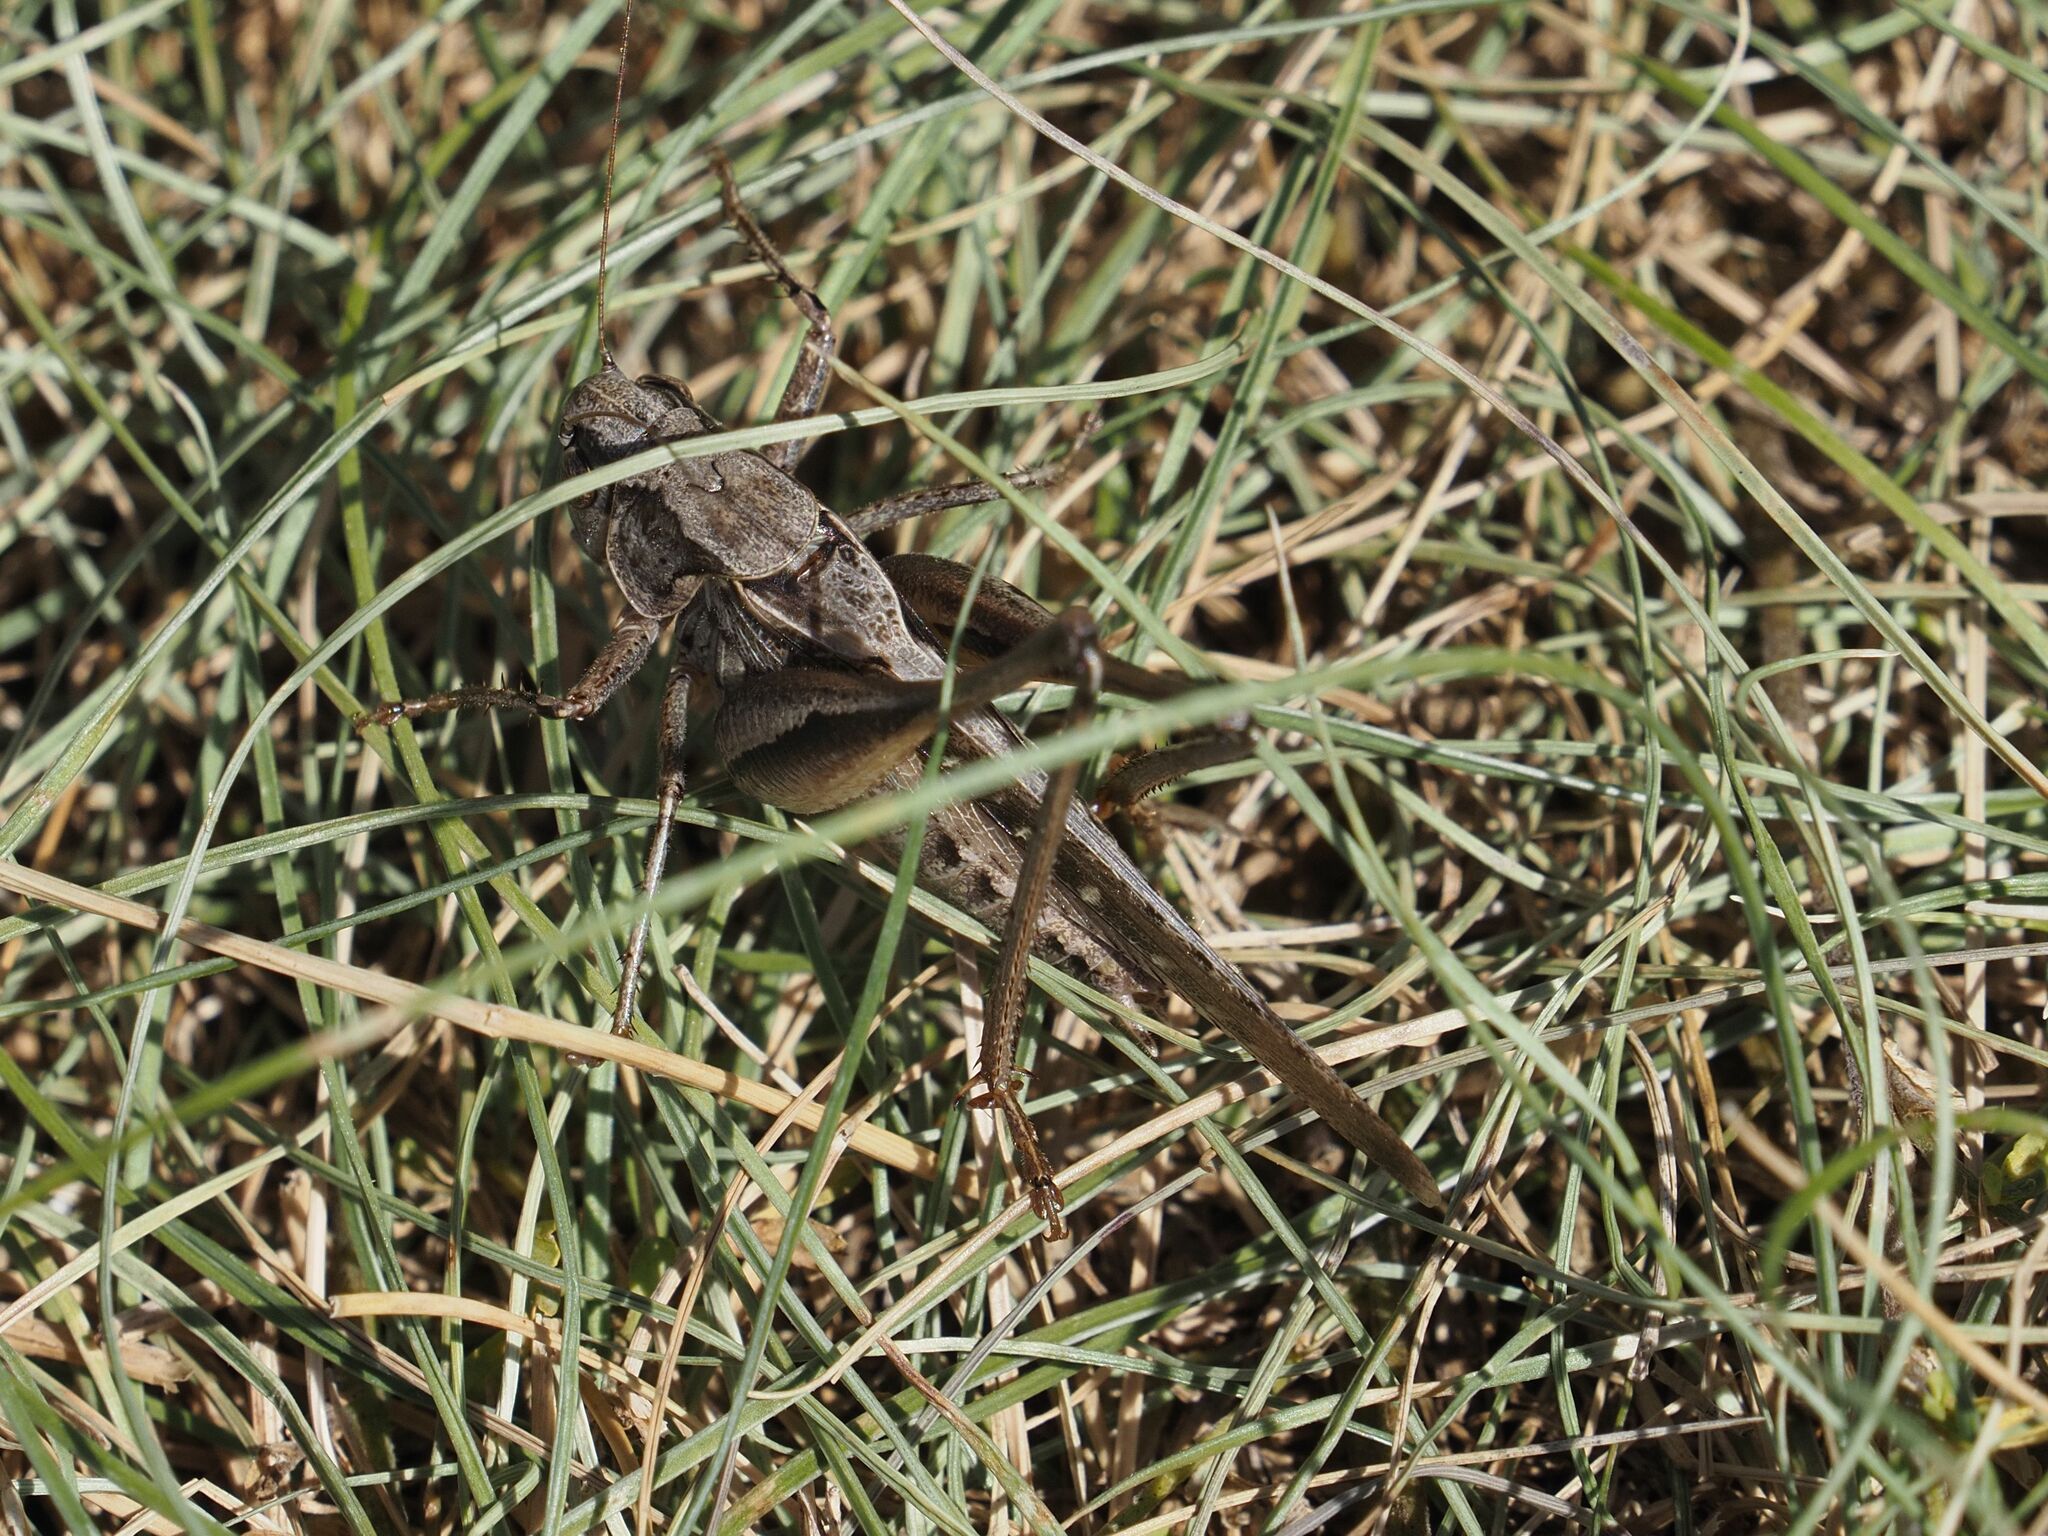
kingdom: Animalia
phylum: Arthropoda
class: Insecta
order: Orthoptera
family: Tettigoniidae
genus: Platycleis
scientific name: Platycleis grisea
